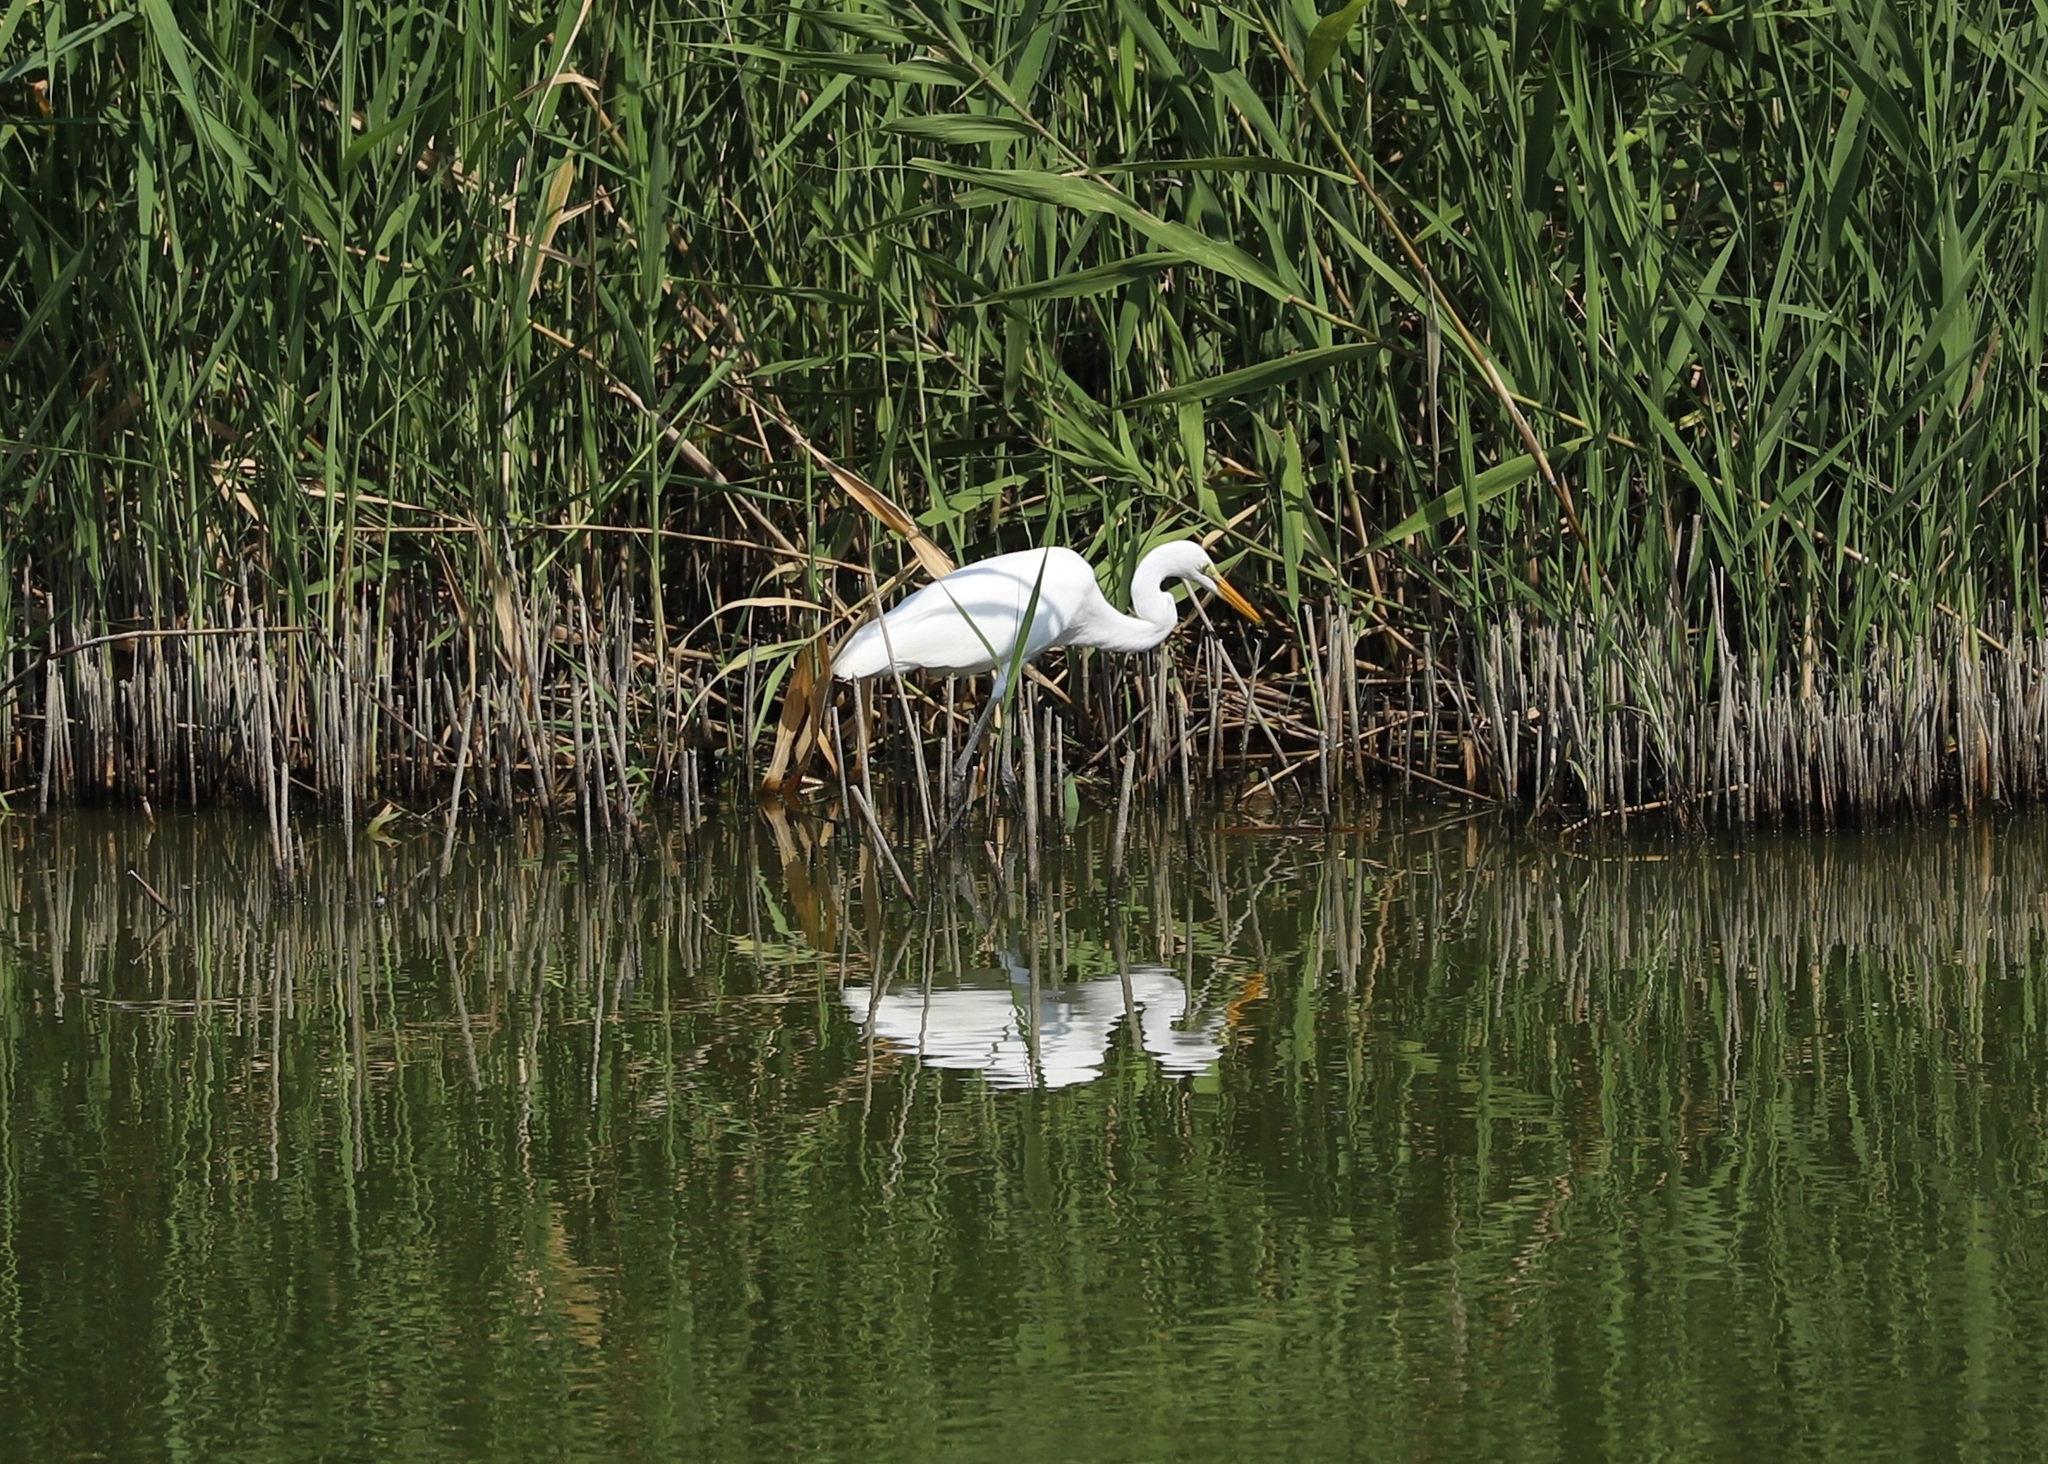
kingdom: Animalia
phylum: Chordata
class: Aves
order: Pelecaniformes
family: Ardeidae
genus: Ardea
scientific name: Ardea modesta
